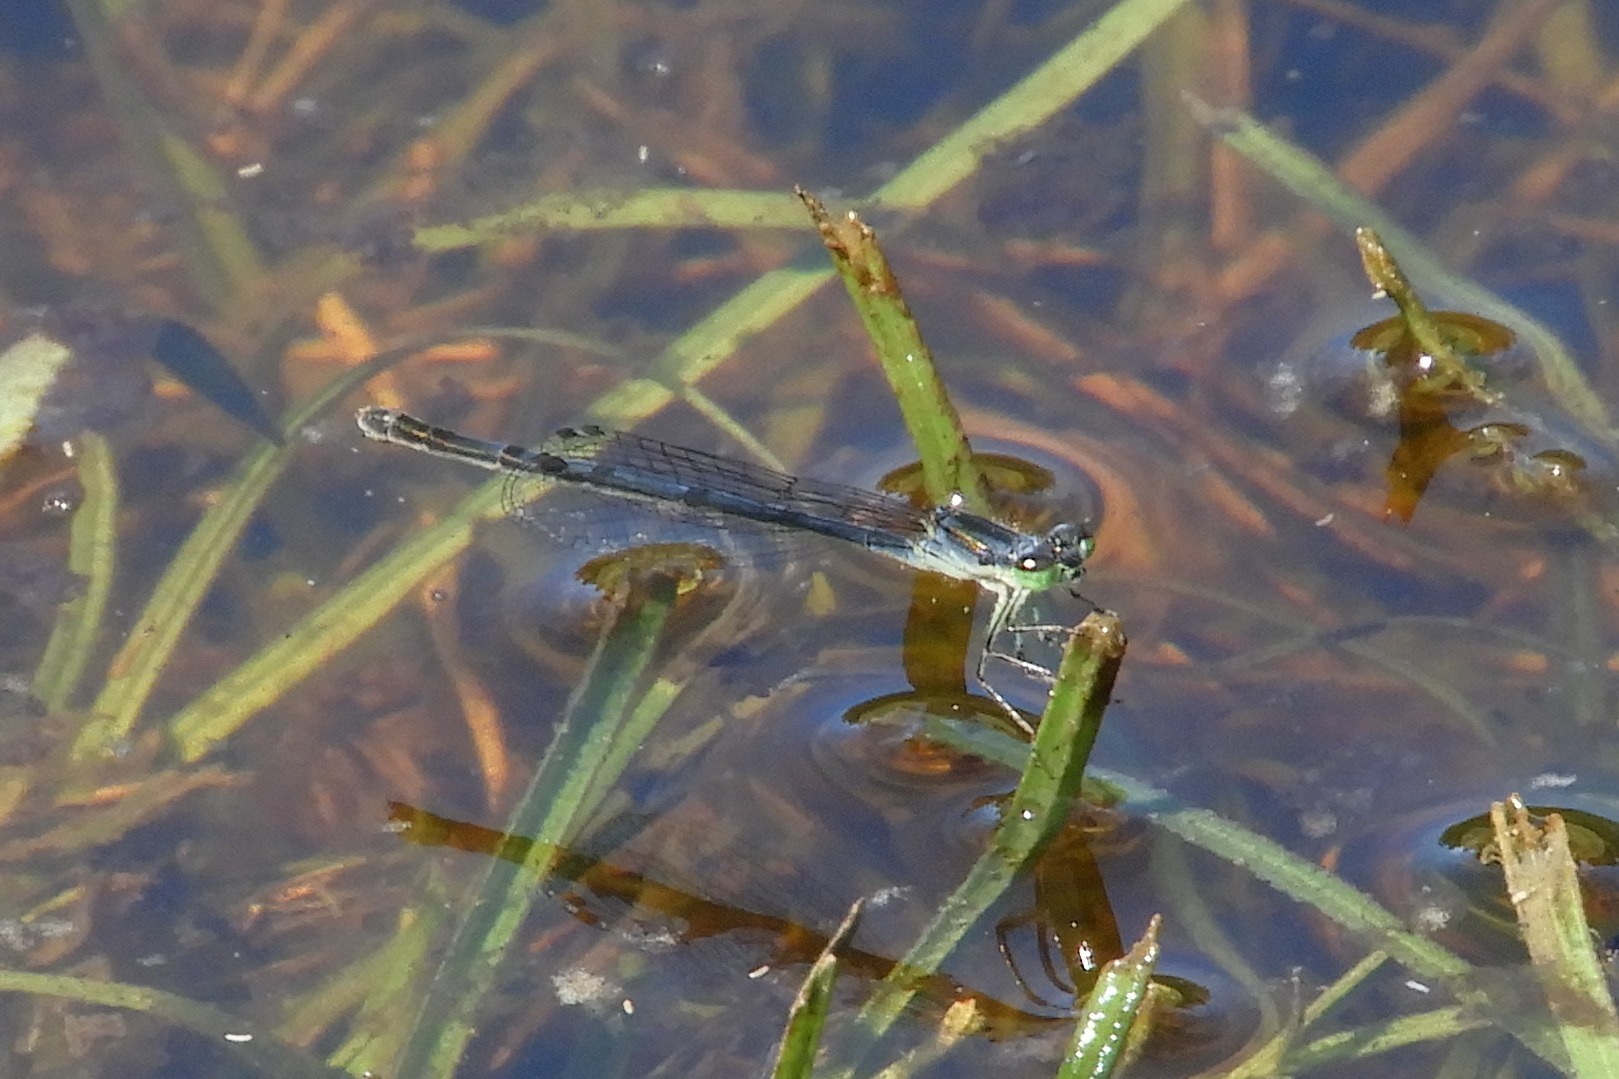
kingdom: Animalia
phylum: Arthropoda
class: Insecta
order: Odonata
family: Coenagrionidae
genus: Ischnura
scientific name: Ischnura posita
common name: Fragile forktail
